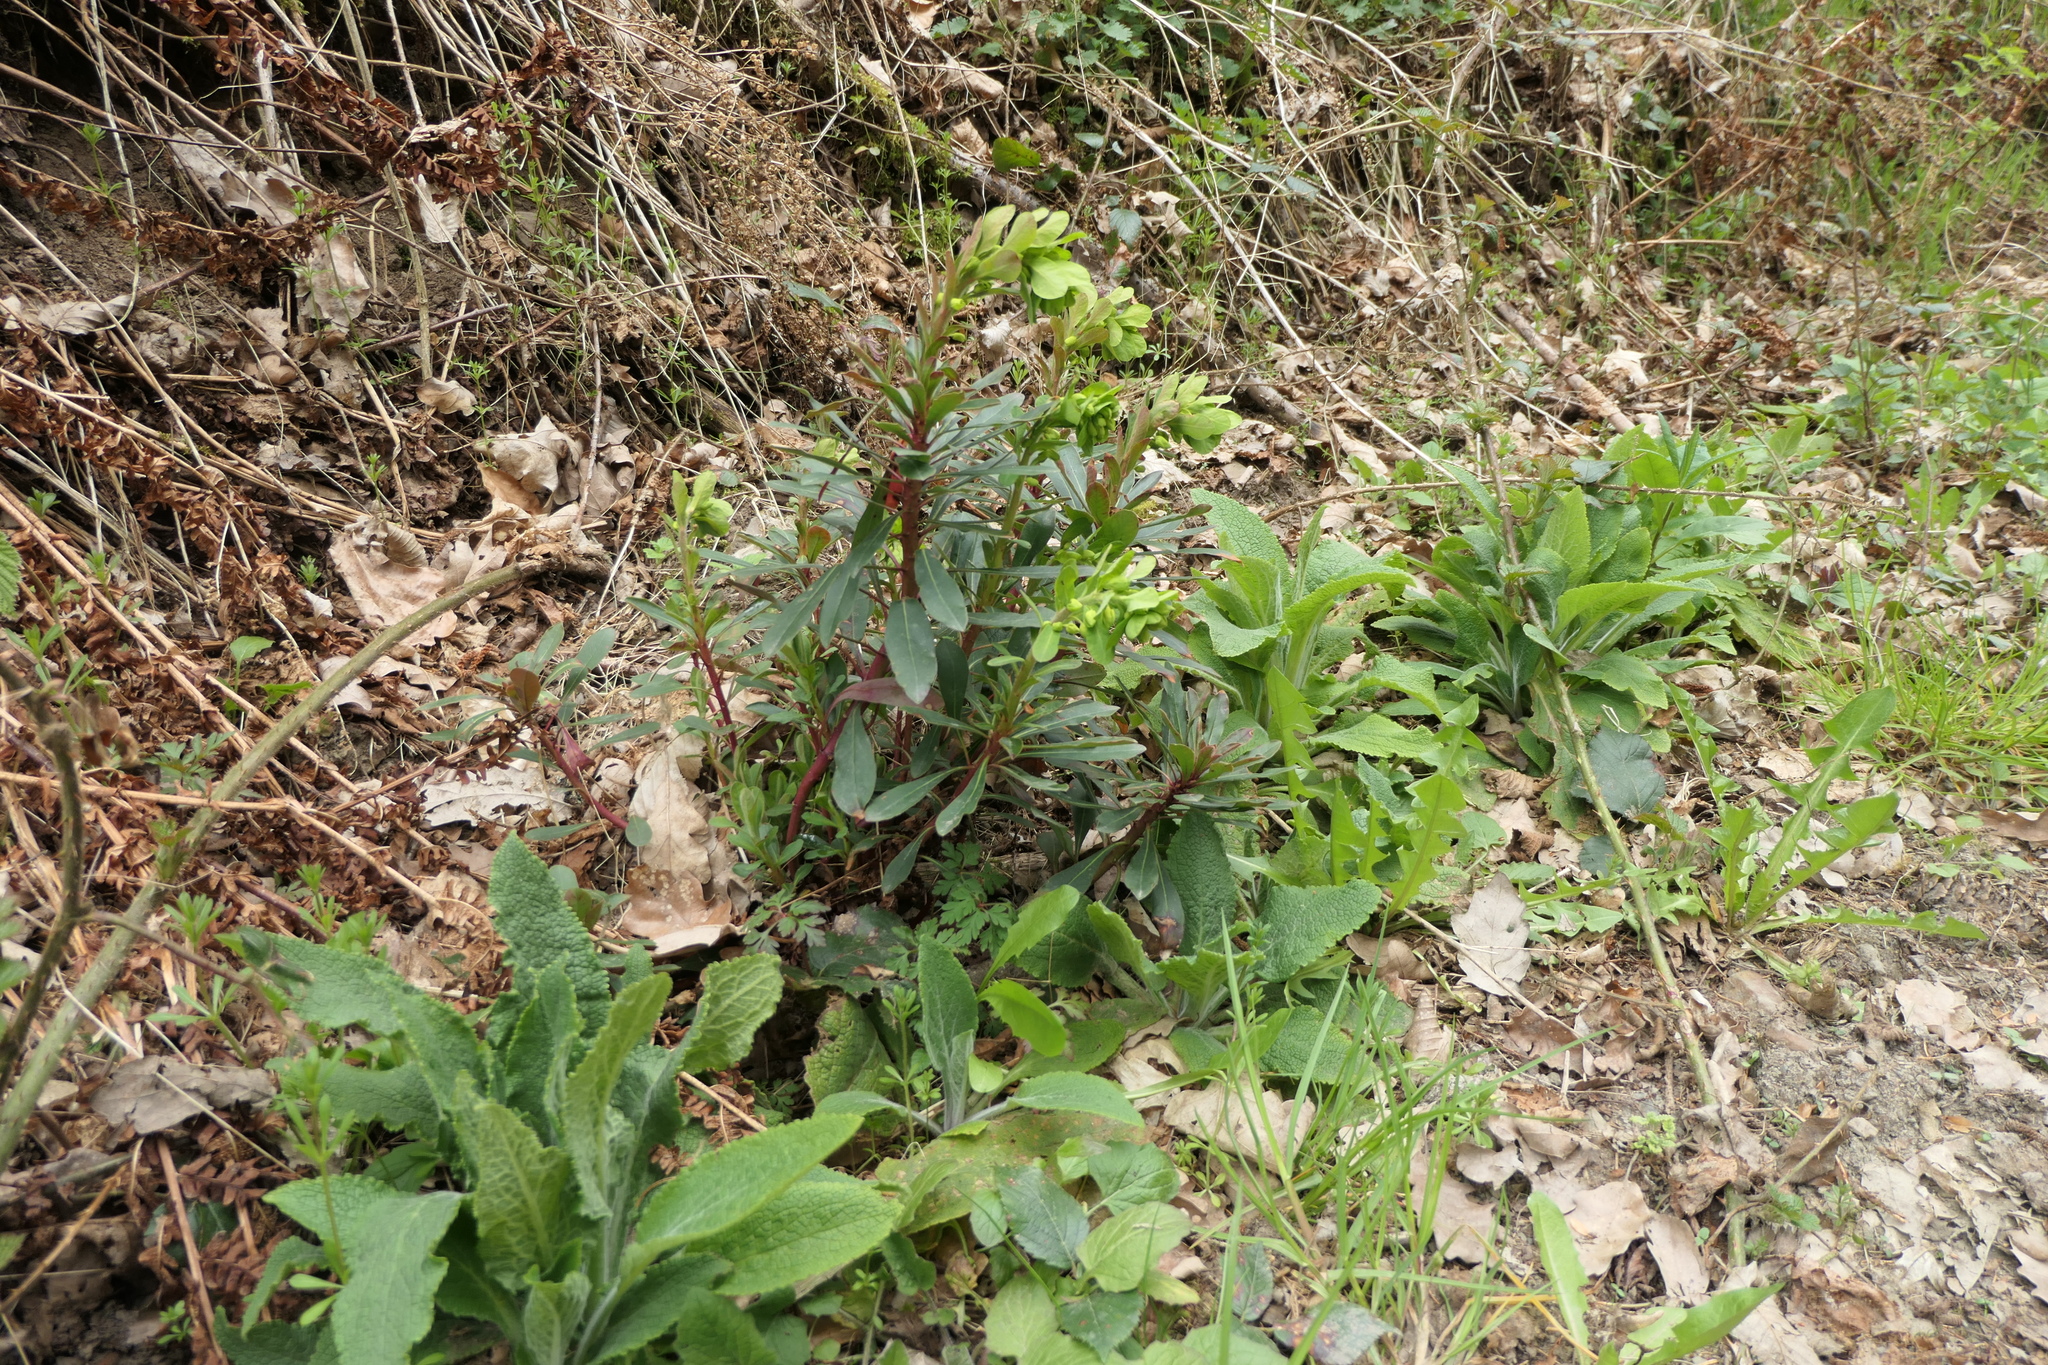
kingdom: Plantae
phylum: Tracheophyta
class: Magnoliopsida
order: Malpighiales
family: Euphorbiaceae
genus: Euphorbia
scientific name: Euphorbia amygdaloides
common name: Wood spurge
